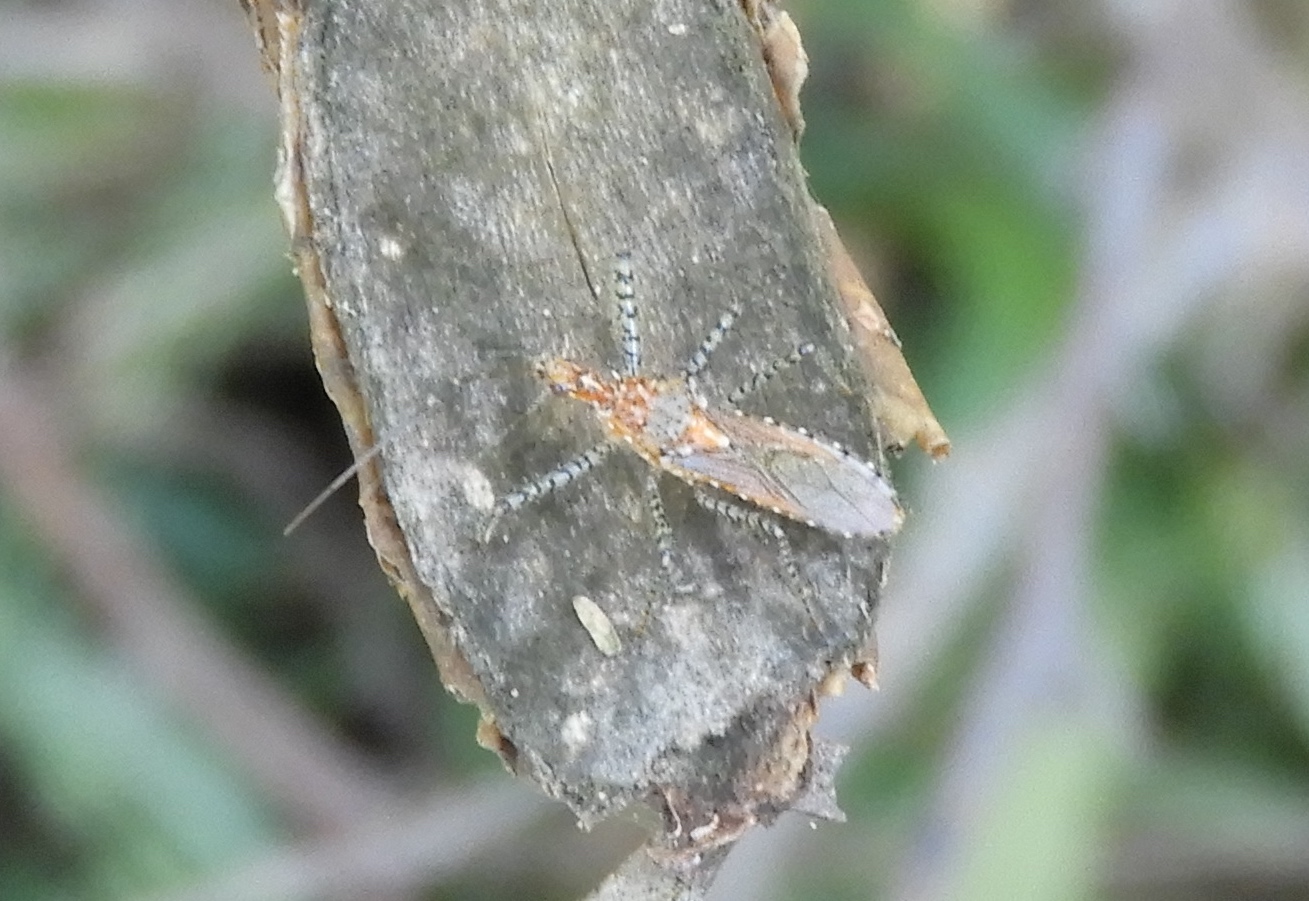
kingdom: Animalia
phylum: Arthropoda
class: Insecta
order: Hemiptera
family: Reduviidae
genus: Pselliopus
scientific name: Pselliopus
